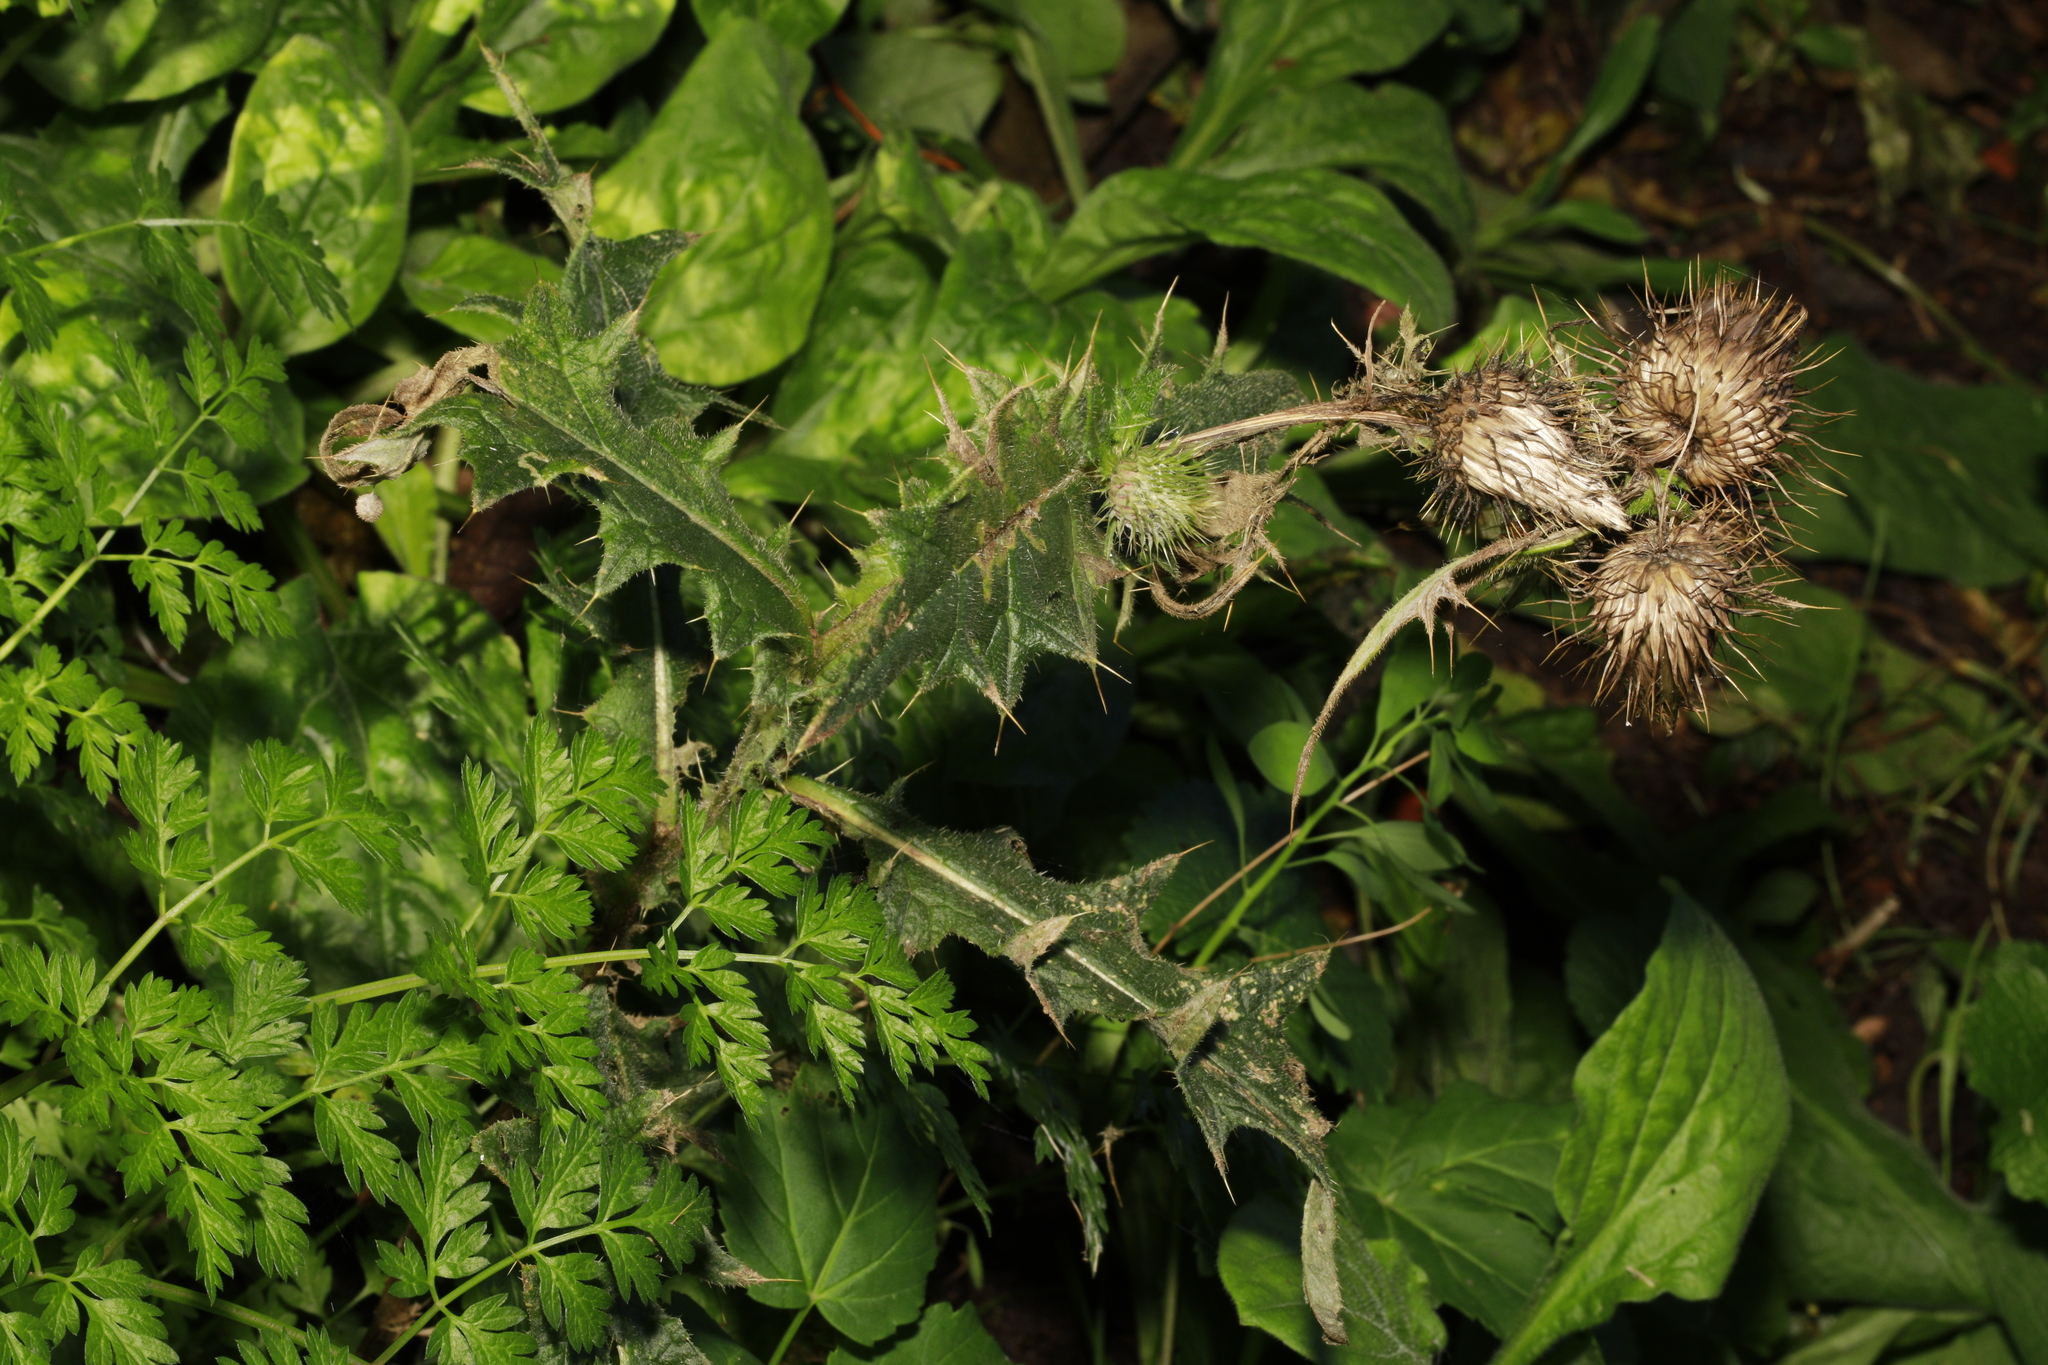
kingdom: Plantae
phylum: Tracheophyta
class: Magnoliopsida
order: Asterales
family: Asteraceae
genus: Cirsium
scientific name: Cirsium vulgare
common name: Bull thistle
